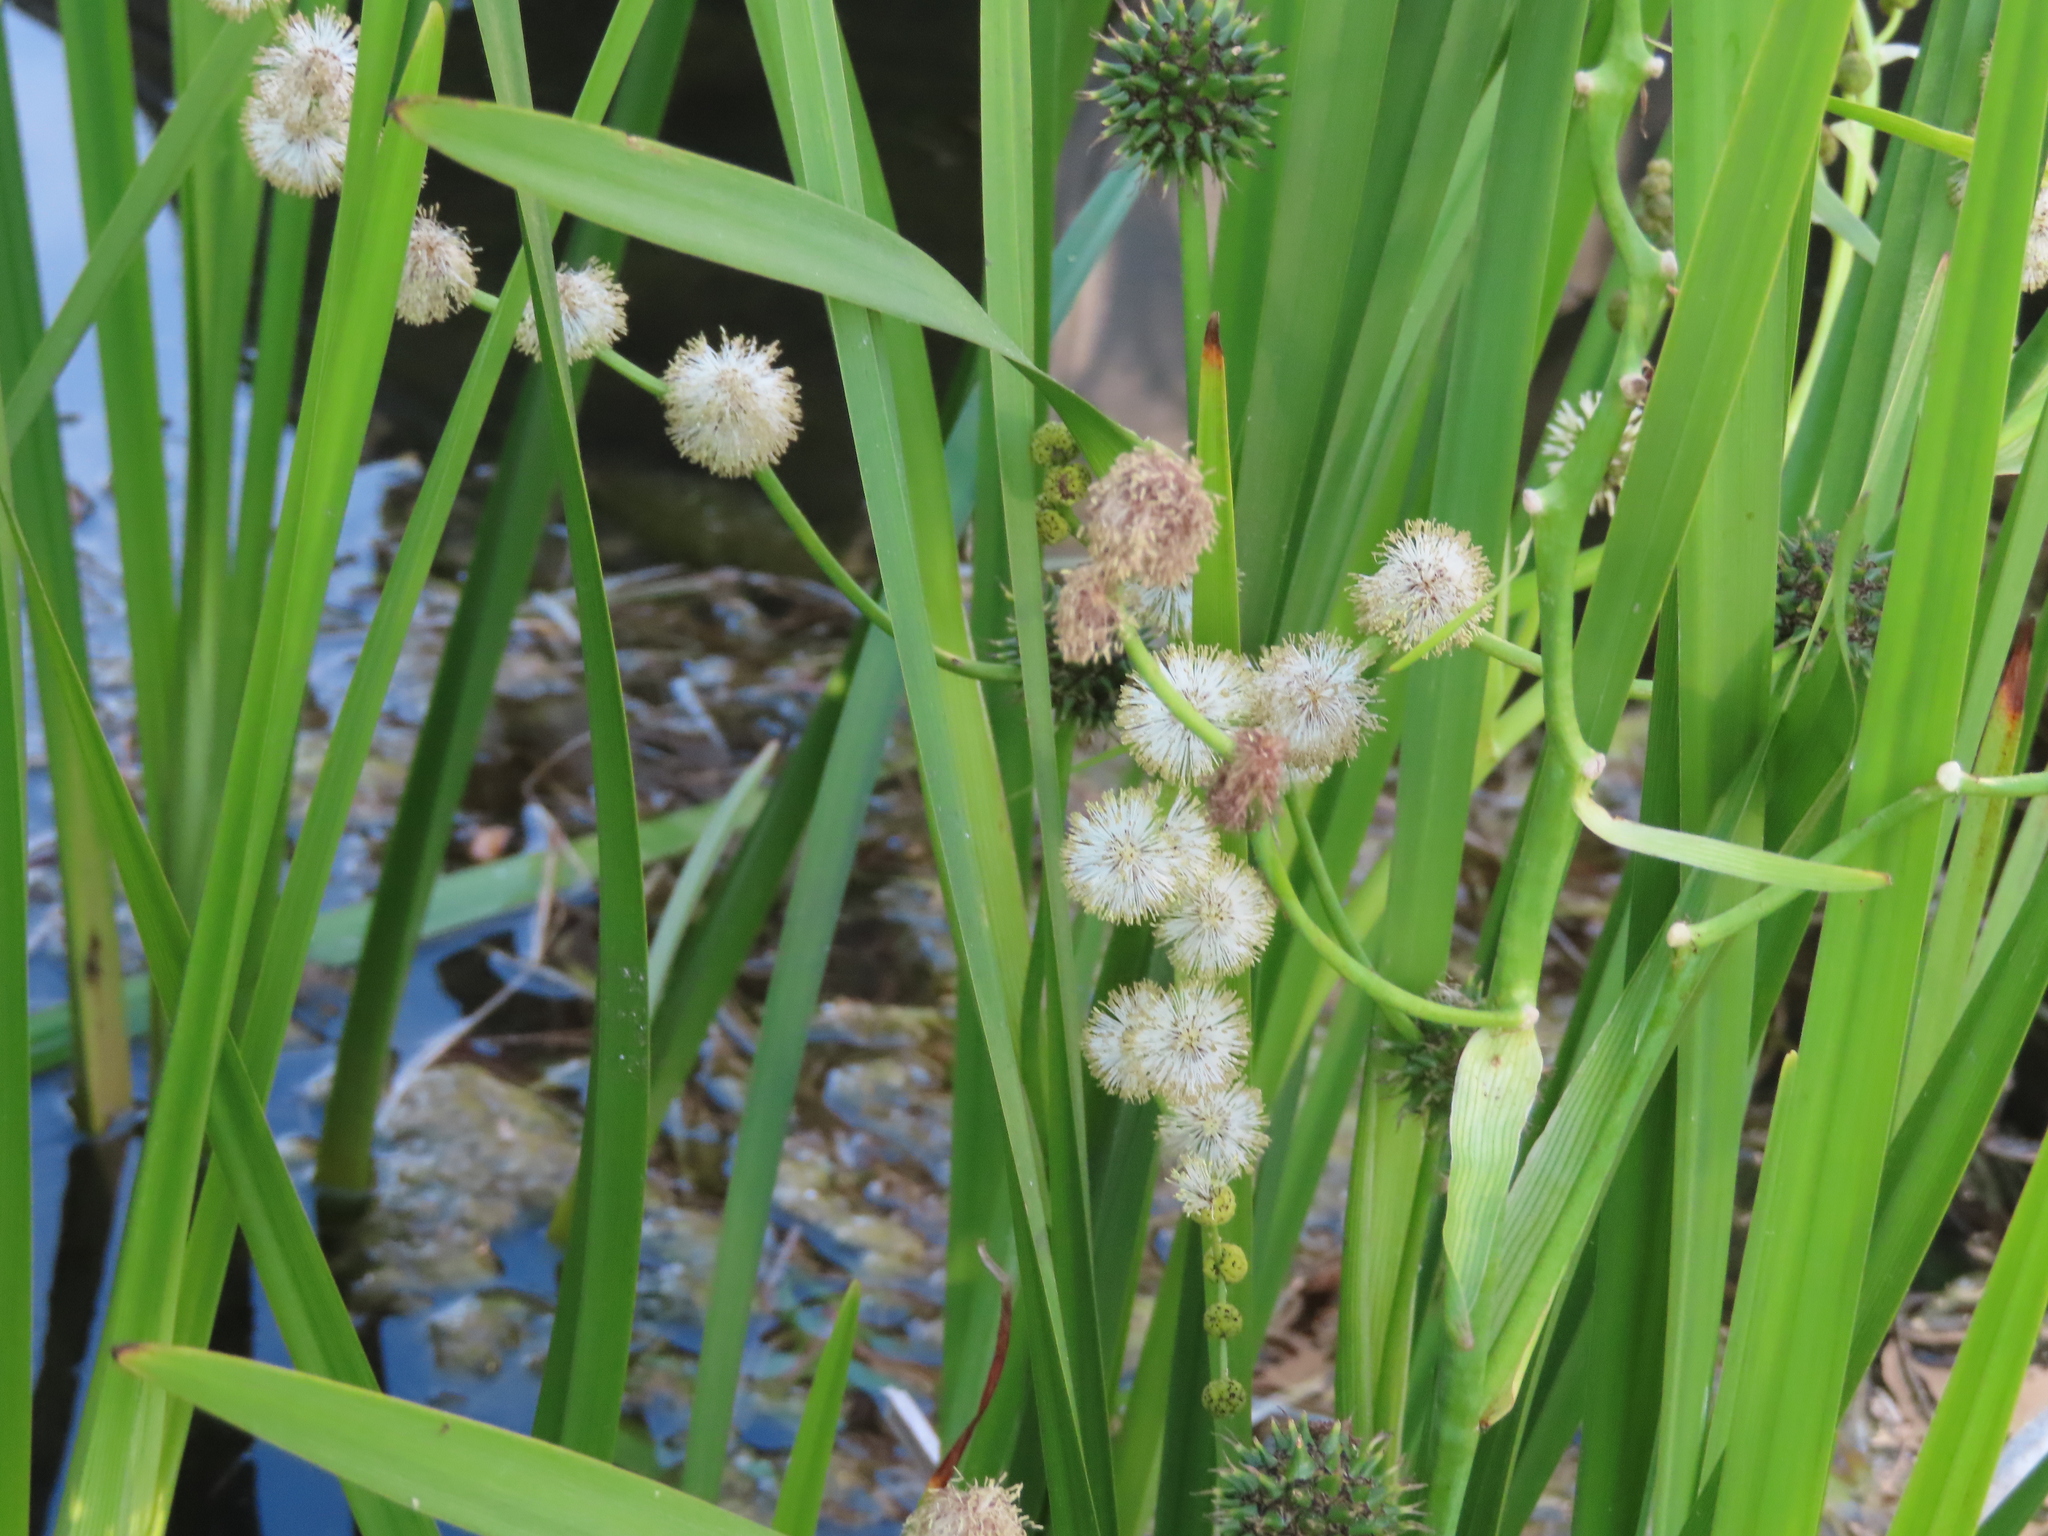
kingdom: Plantae
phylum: Tracheophyta
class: Liliopsida
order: Poales
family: Typhaceae
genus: Sparganium
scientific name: Sparganium eurycarpum
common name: Broad-fruited burreed
